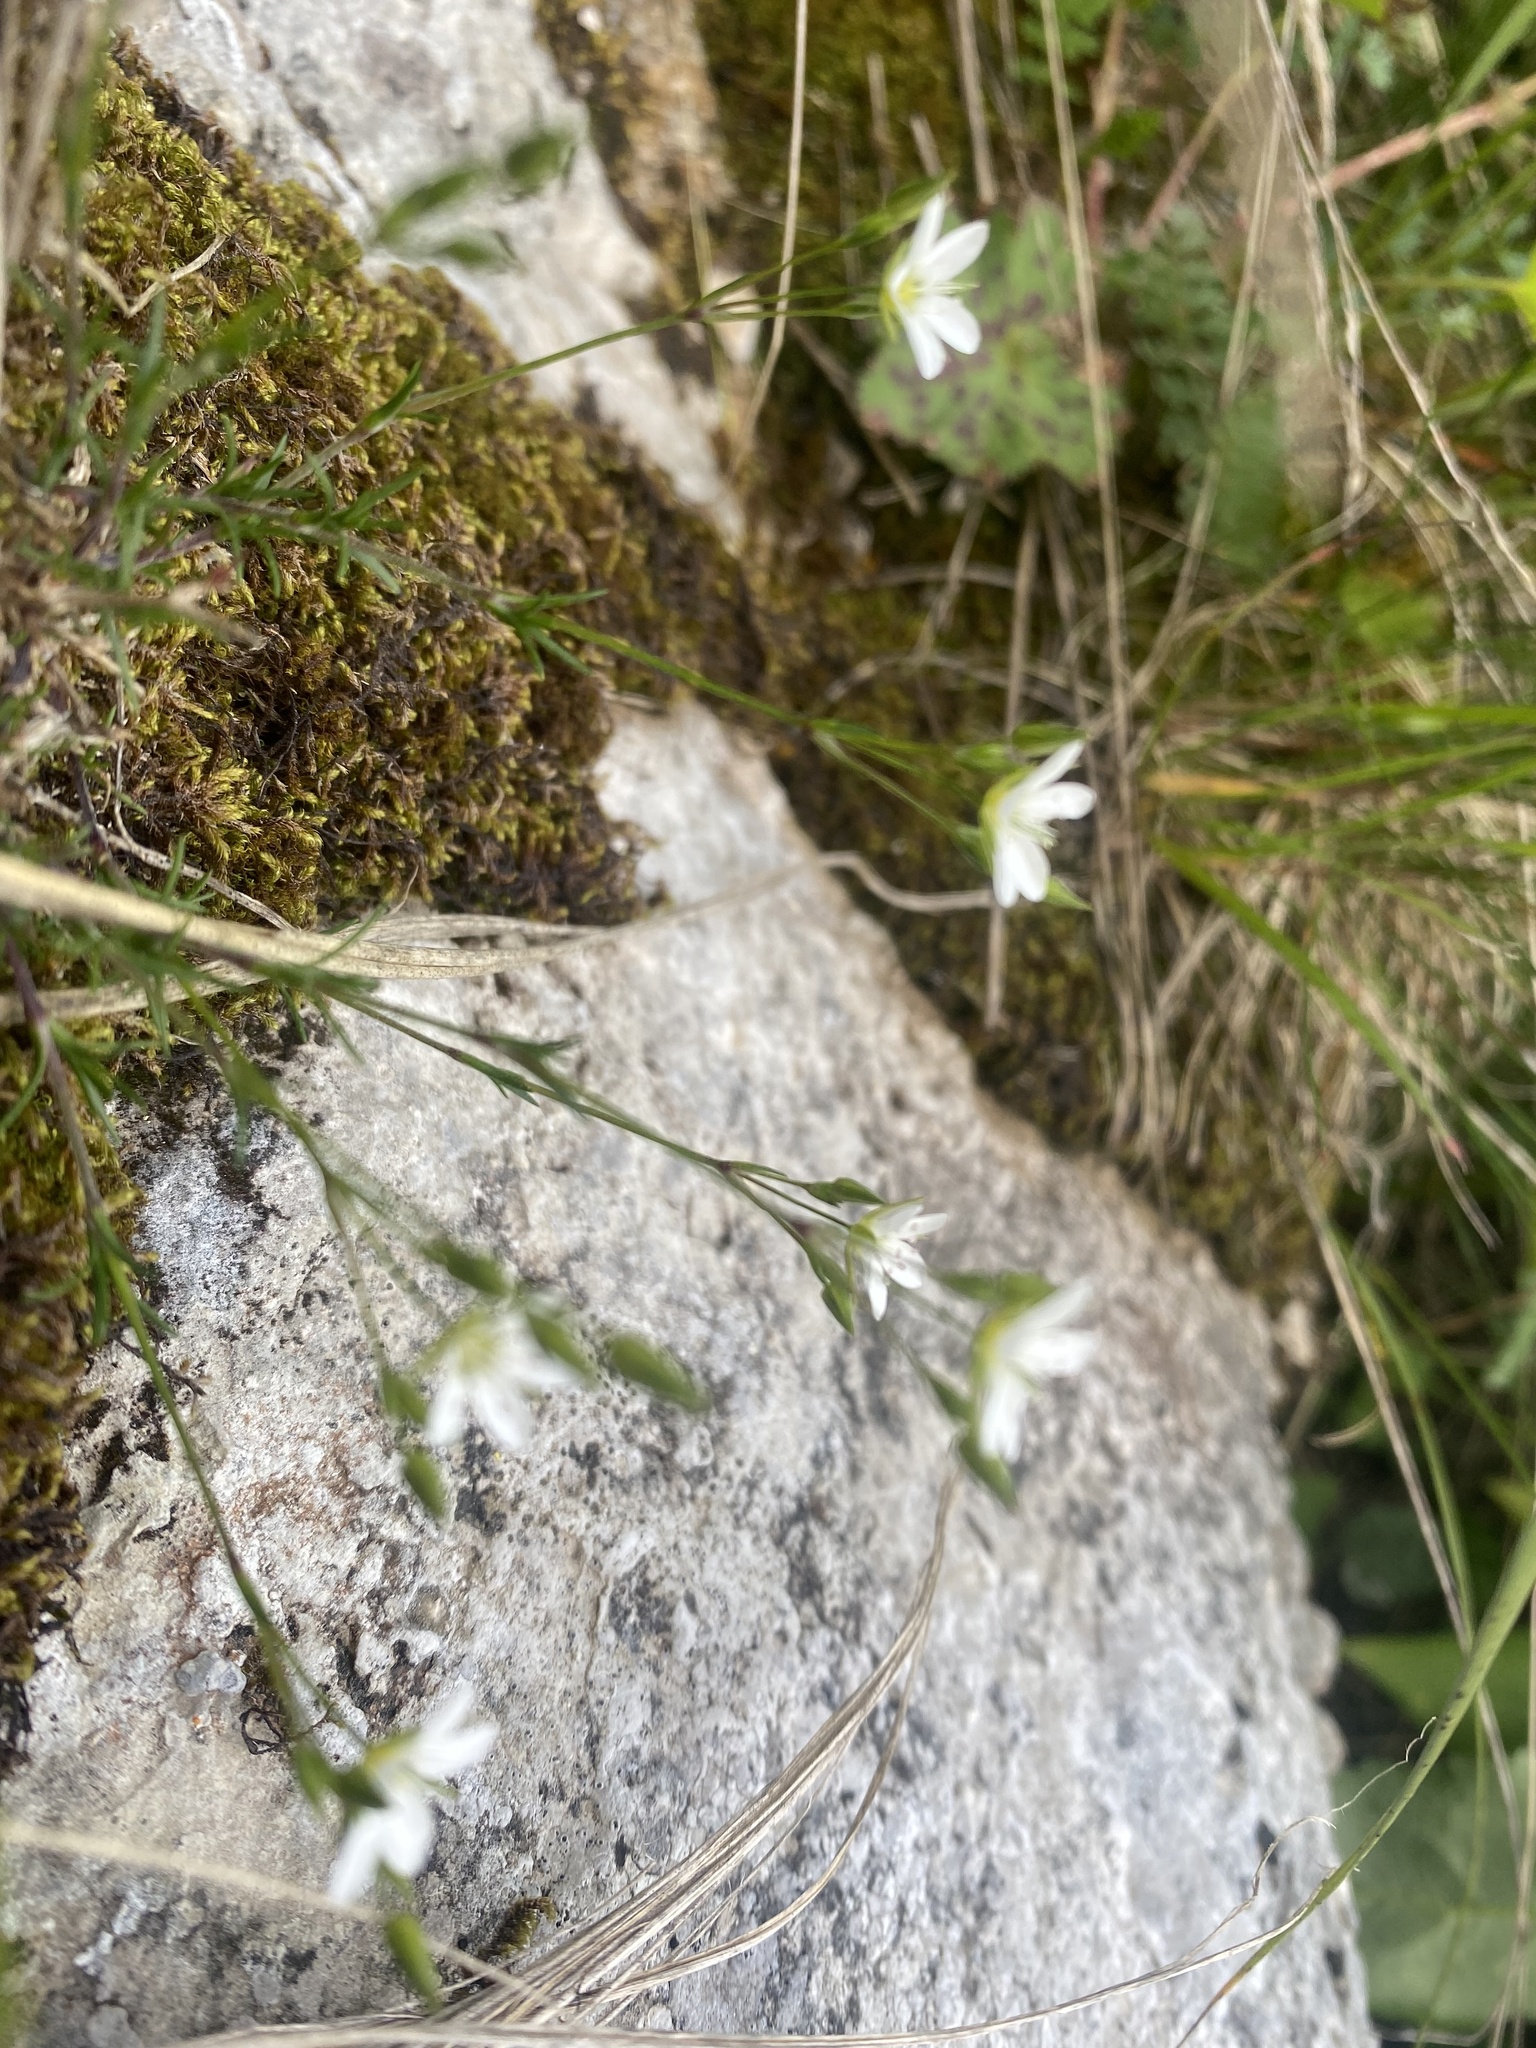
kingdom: Plantae
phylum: Tracheophyta
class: Magnoliopsida
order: Caryophyllales
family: Caryophyllaceae
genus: Minuartia
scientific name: Minuartia hirsuta
